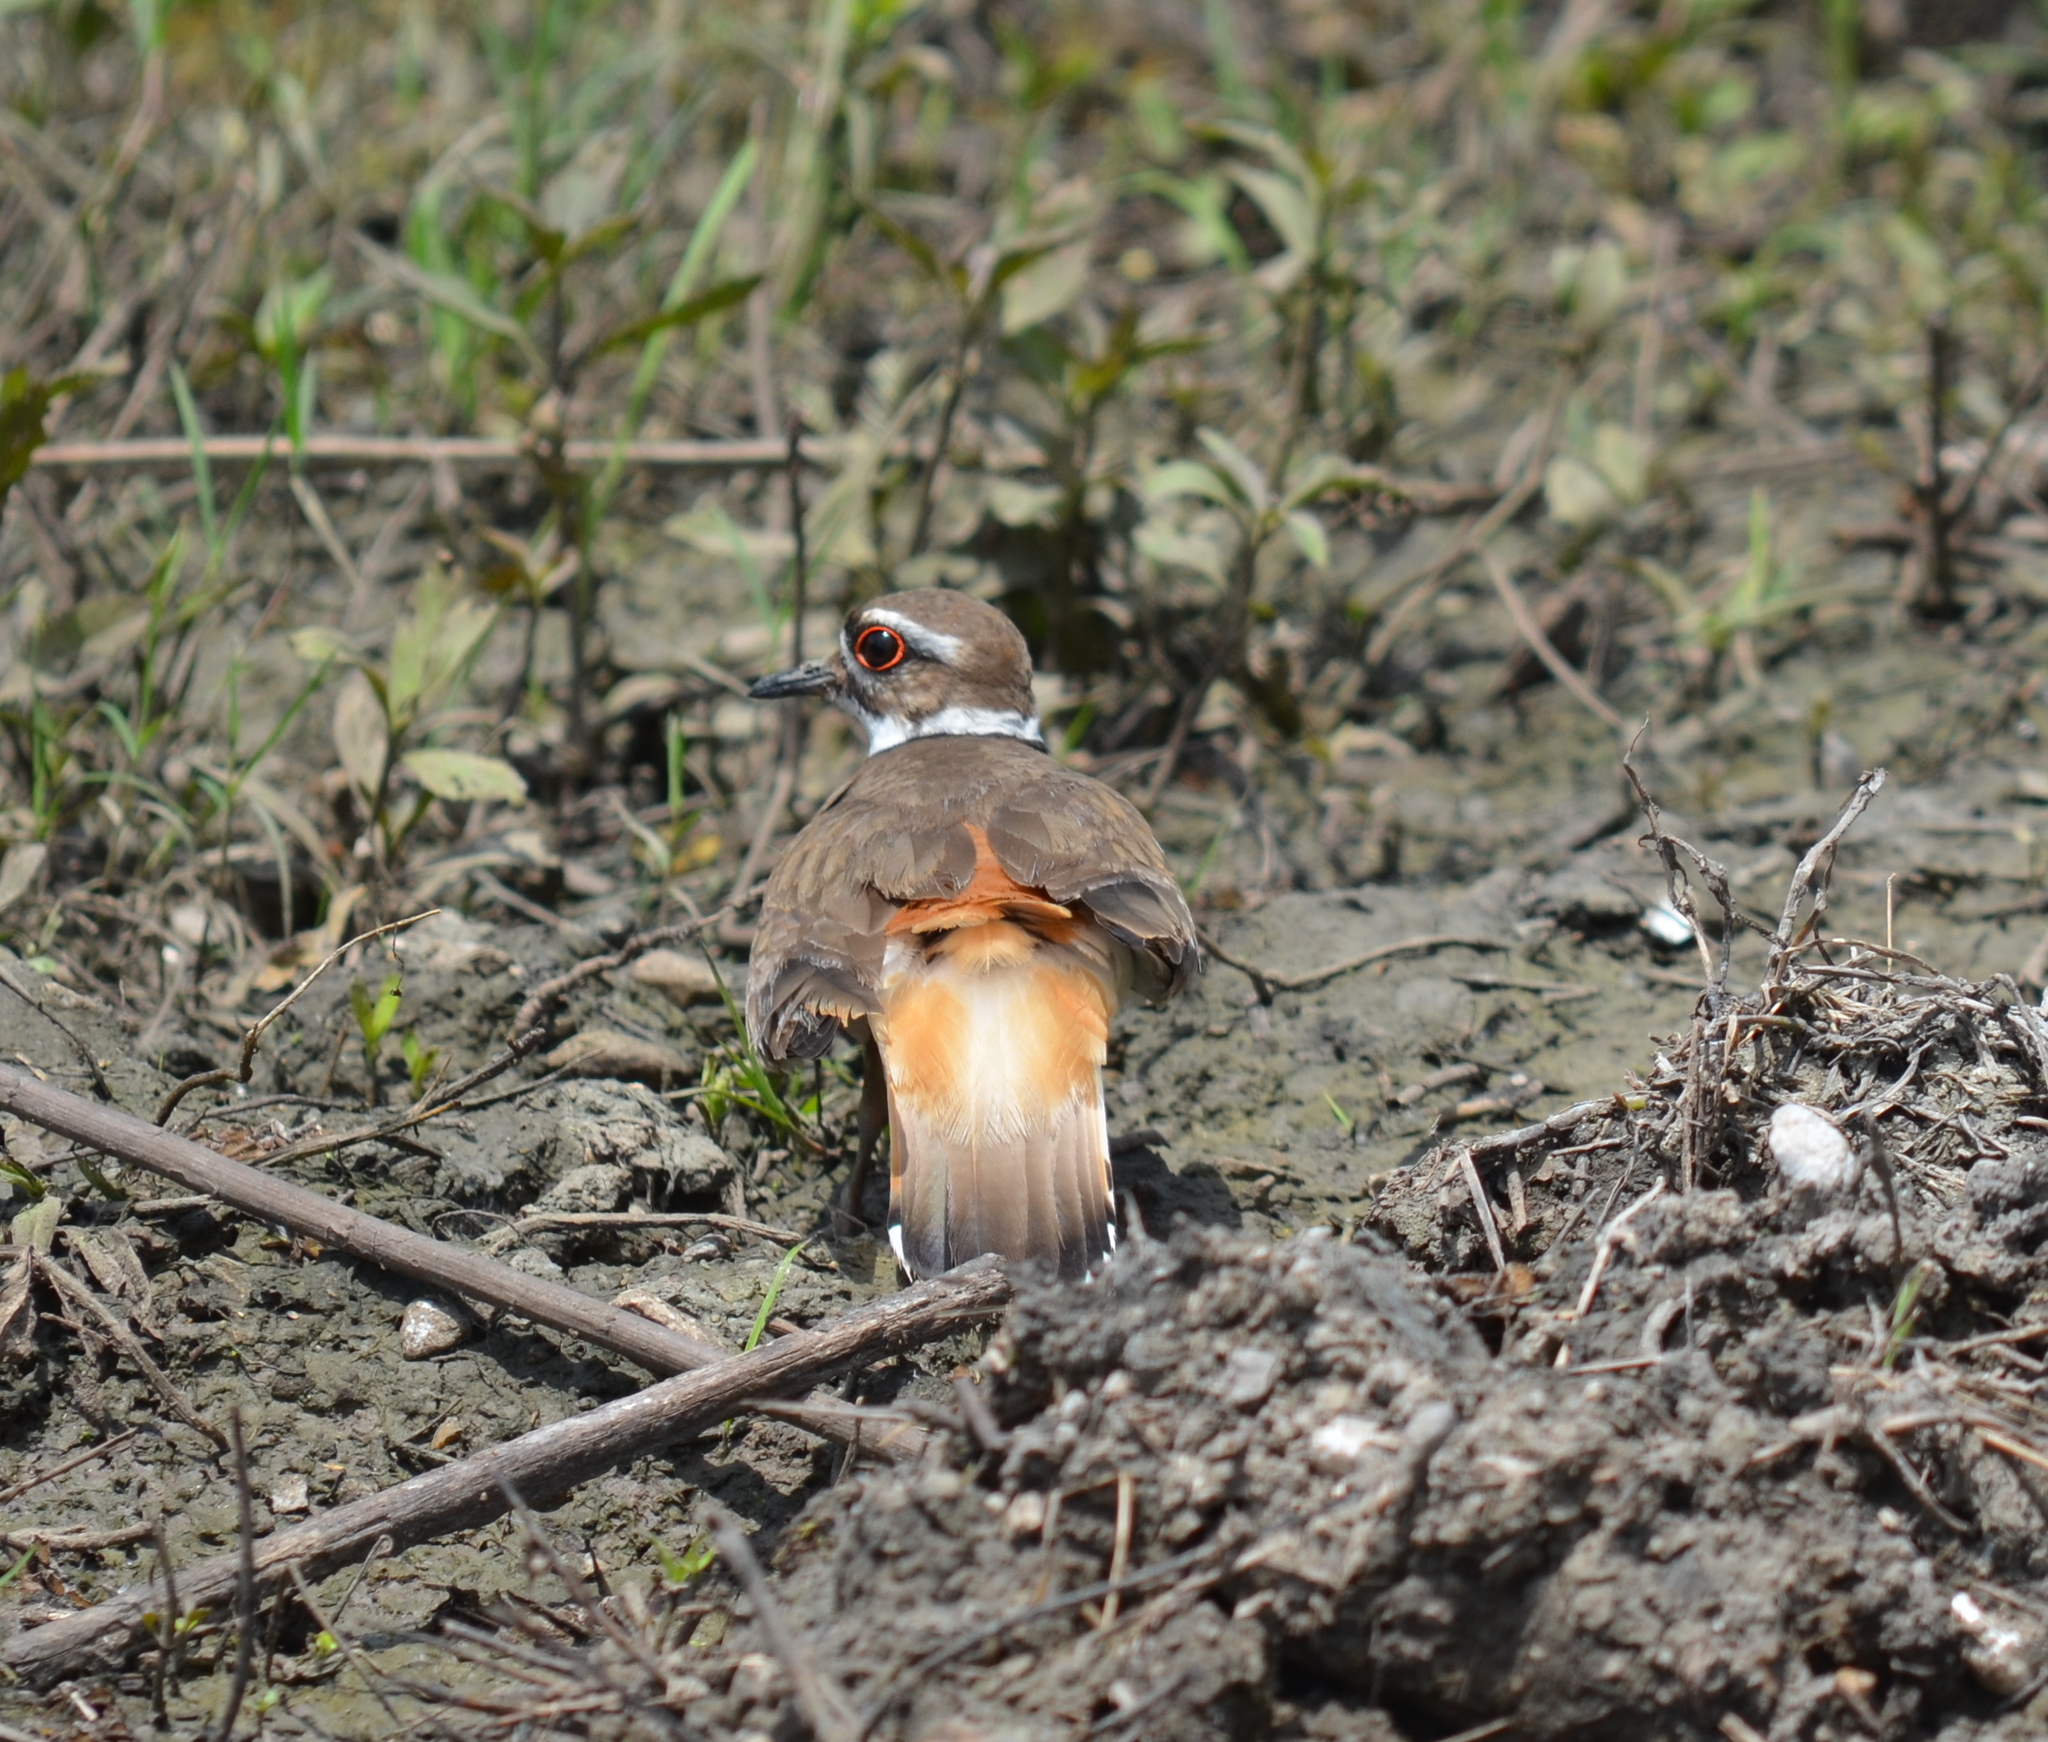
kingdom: Animalia
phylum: Chordata
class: Aves
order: Charadriiformes
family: Charadriidae
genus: Charadrius
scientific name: Charadrius vociferus
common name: Killdeer
